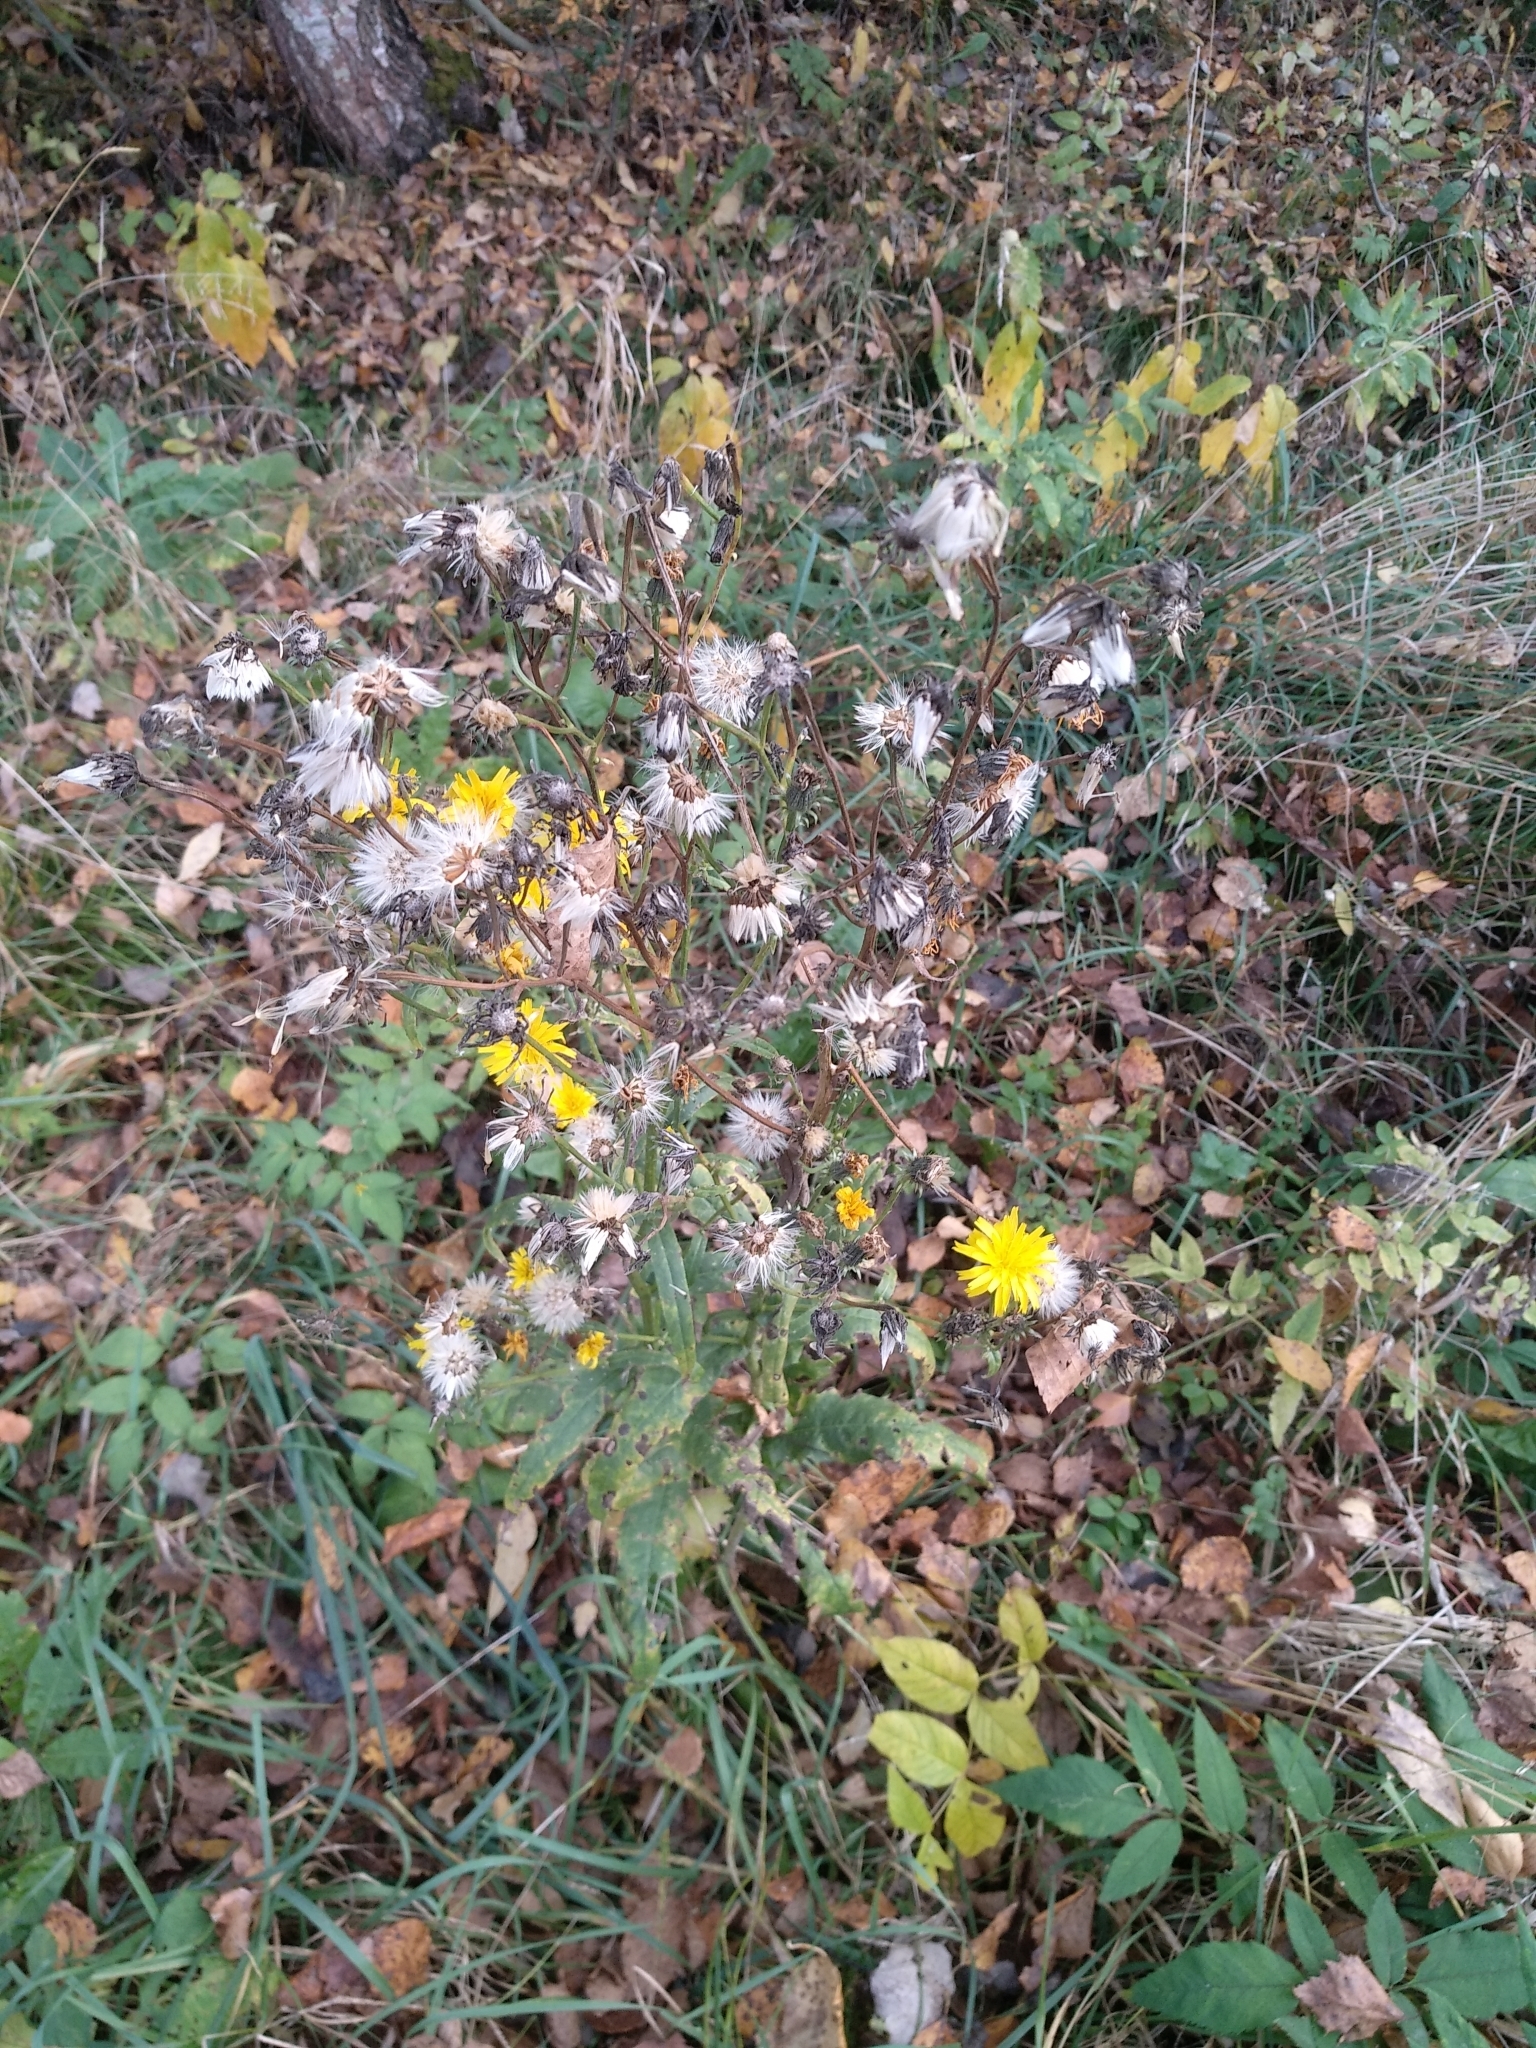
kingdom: Plantae
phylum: Tracheophyta
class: Magnoliopsida
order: Asterales
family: Asteraceae
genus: Picris
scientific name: Picris hieracioides
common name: Hawkweed oxtongue
